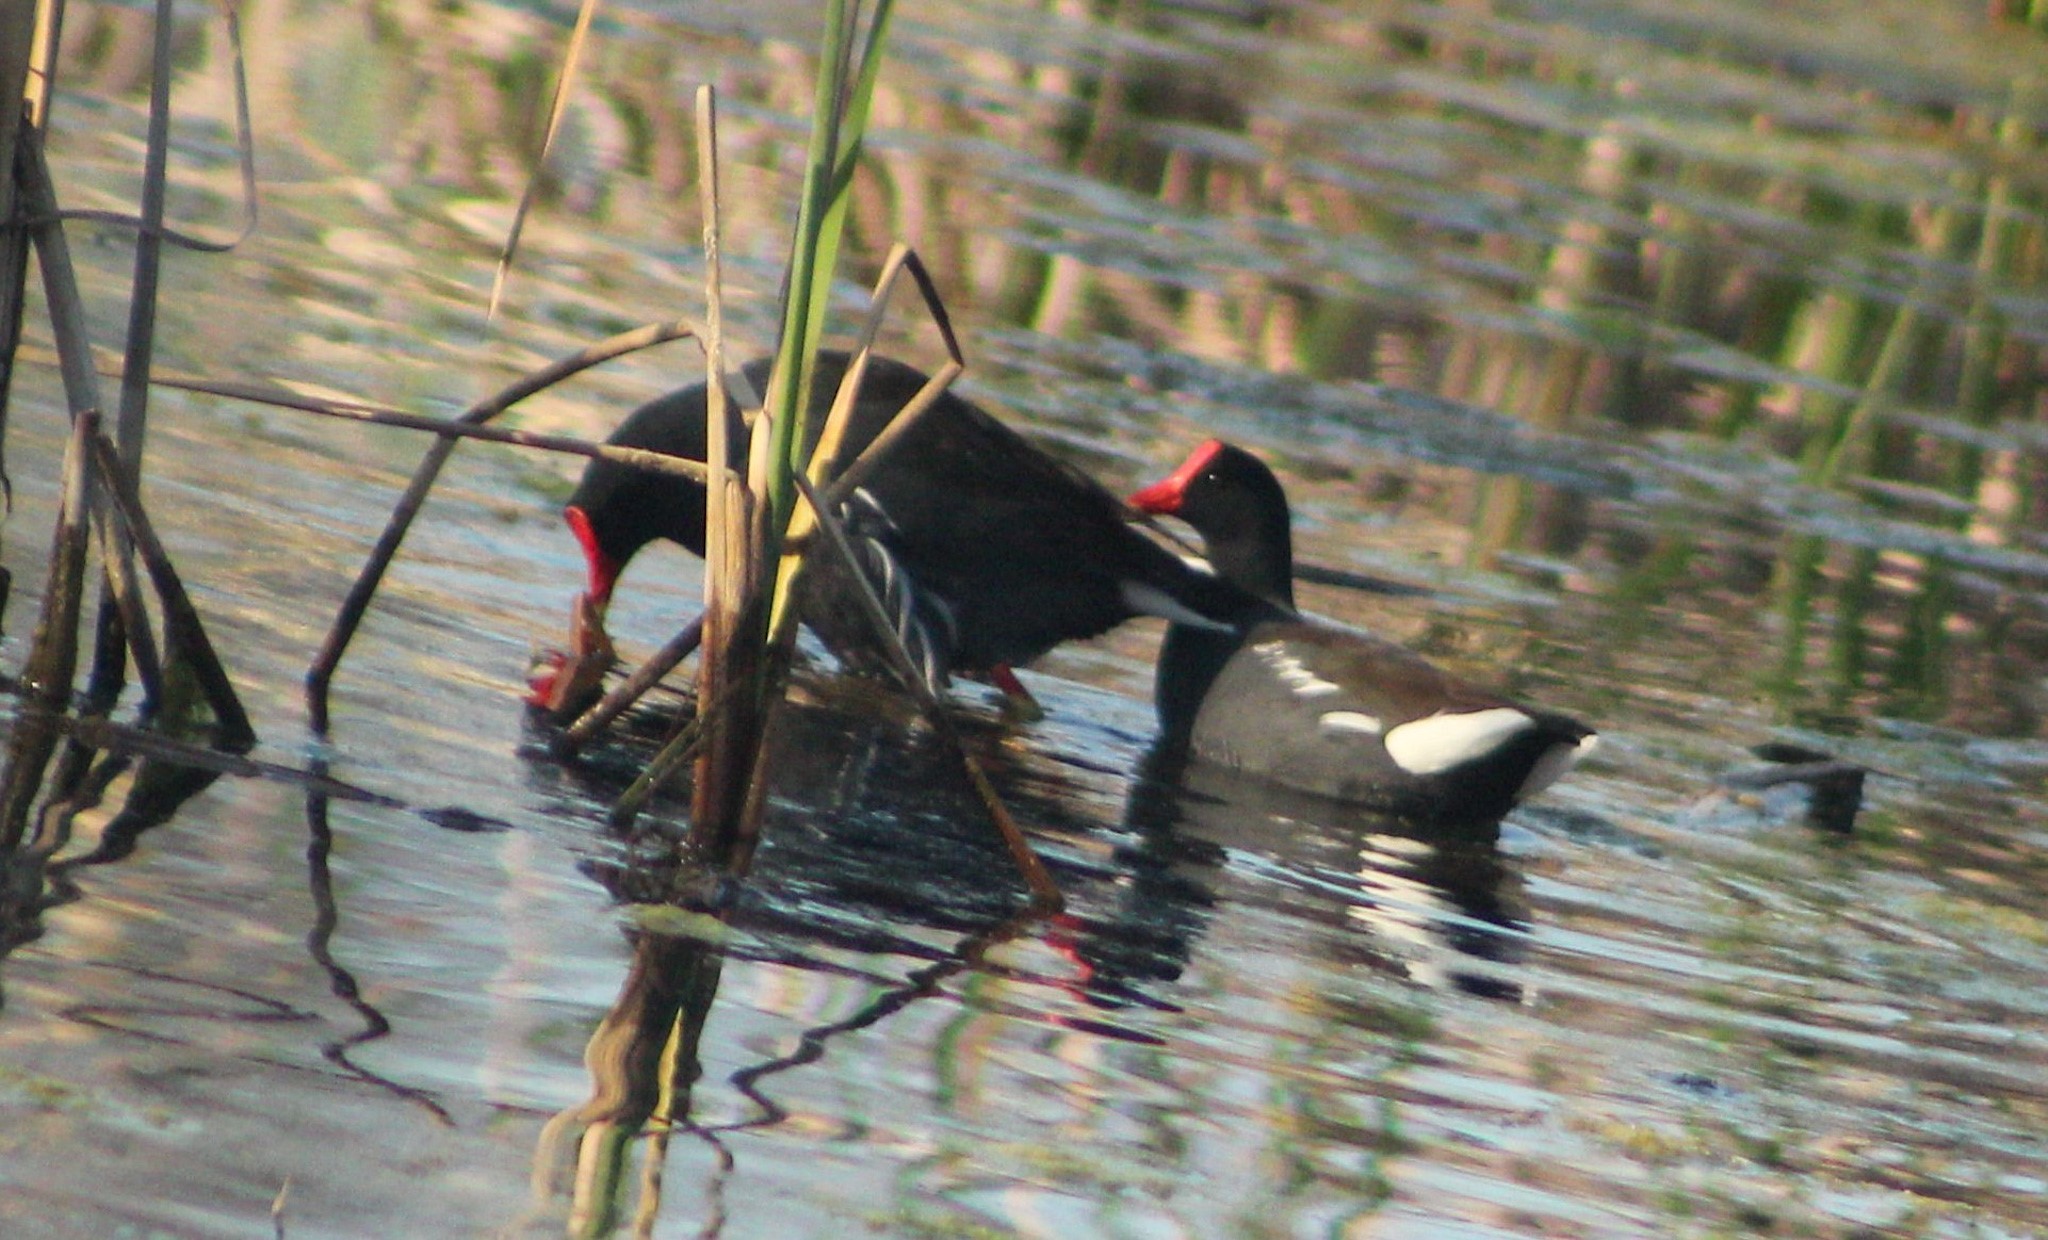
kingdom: Animalia
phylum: Chordata
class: Aves
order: Gruiformes
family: Rallidae
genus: Gallinula
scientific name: Gallinula chloropus
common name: Common moorhen
